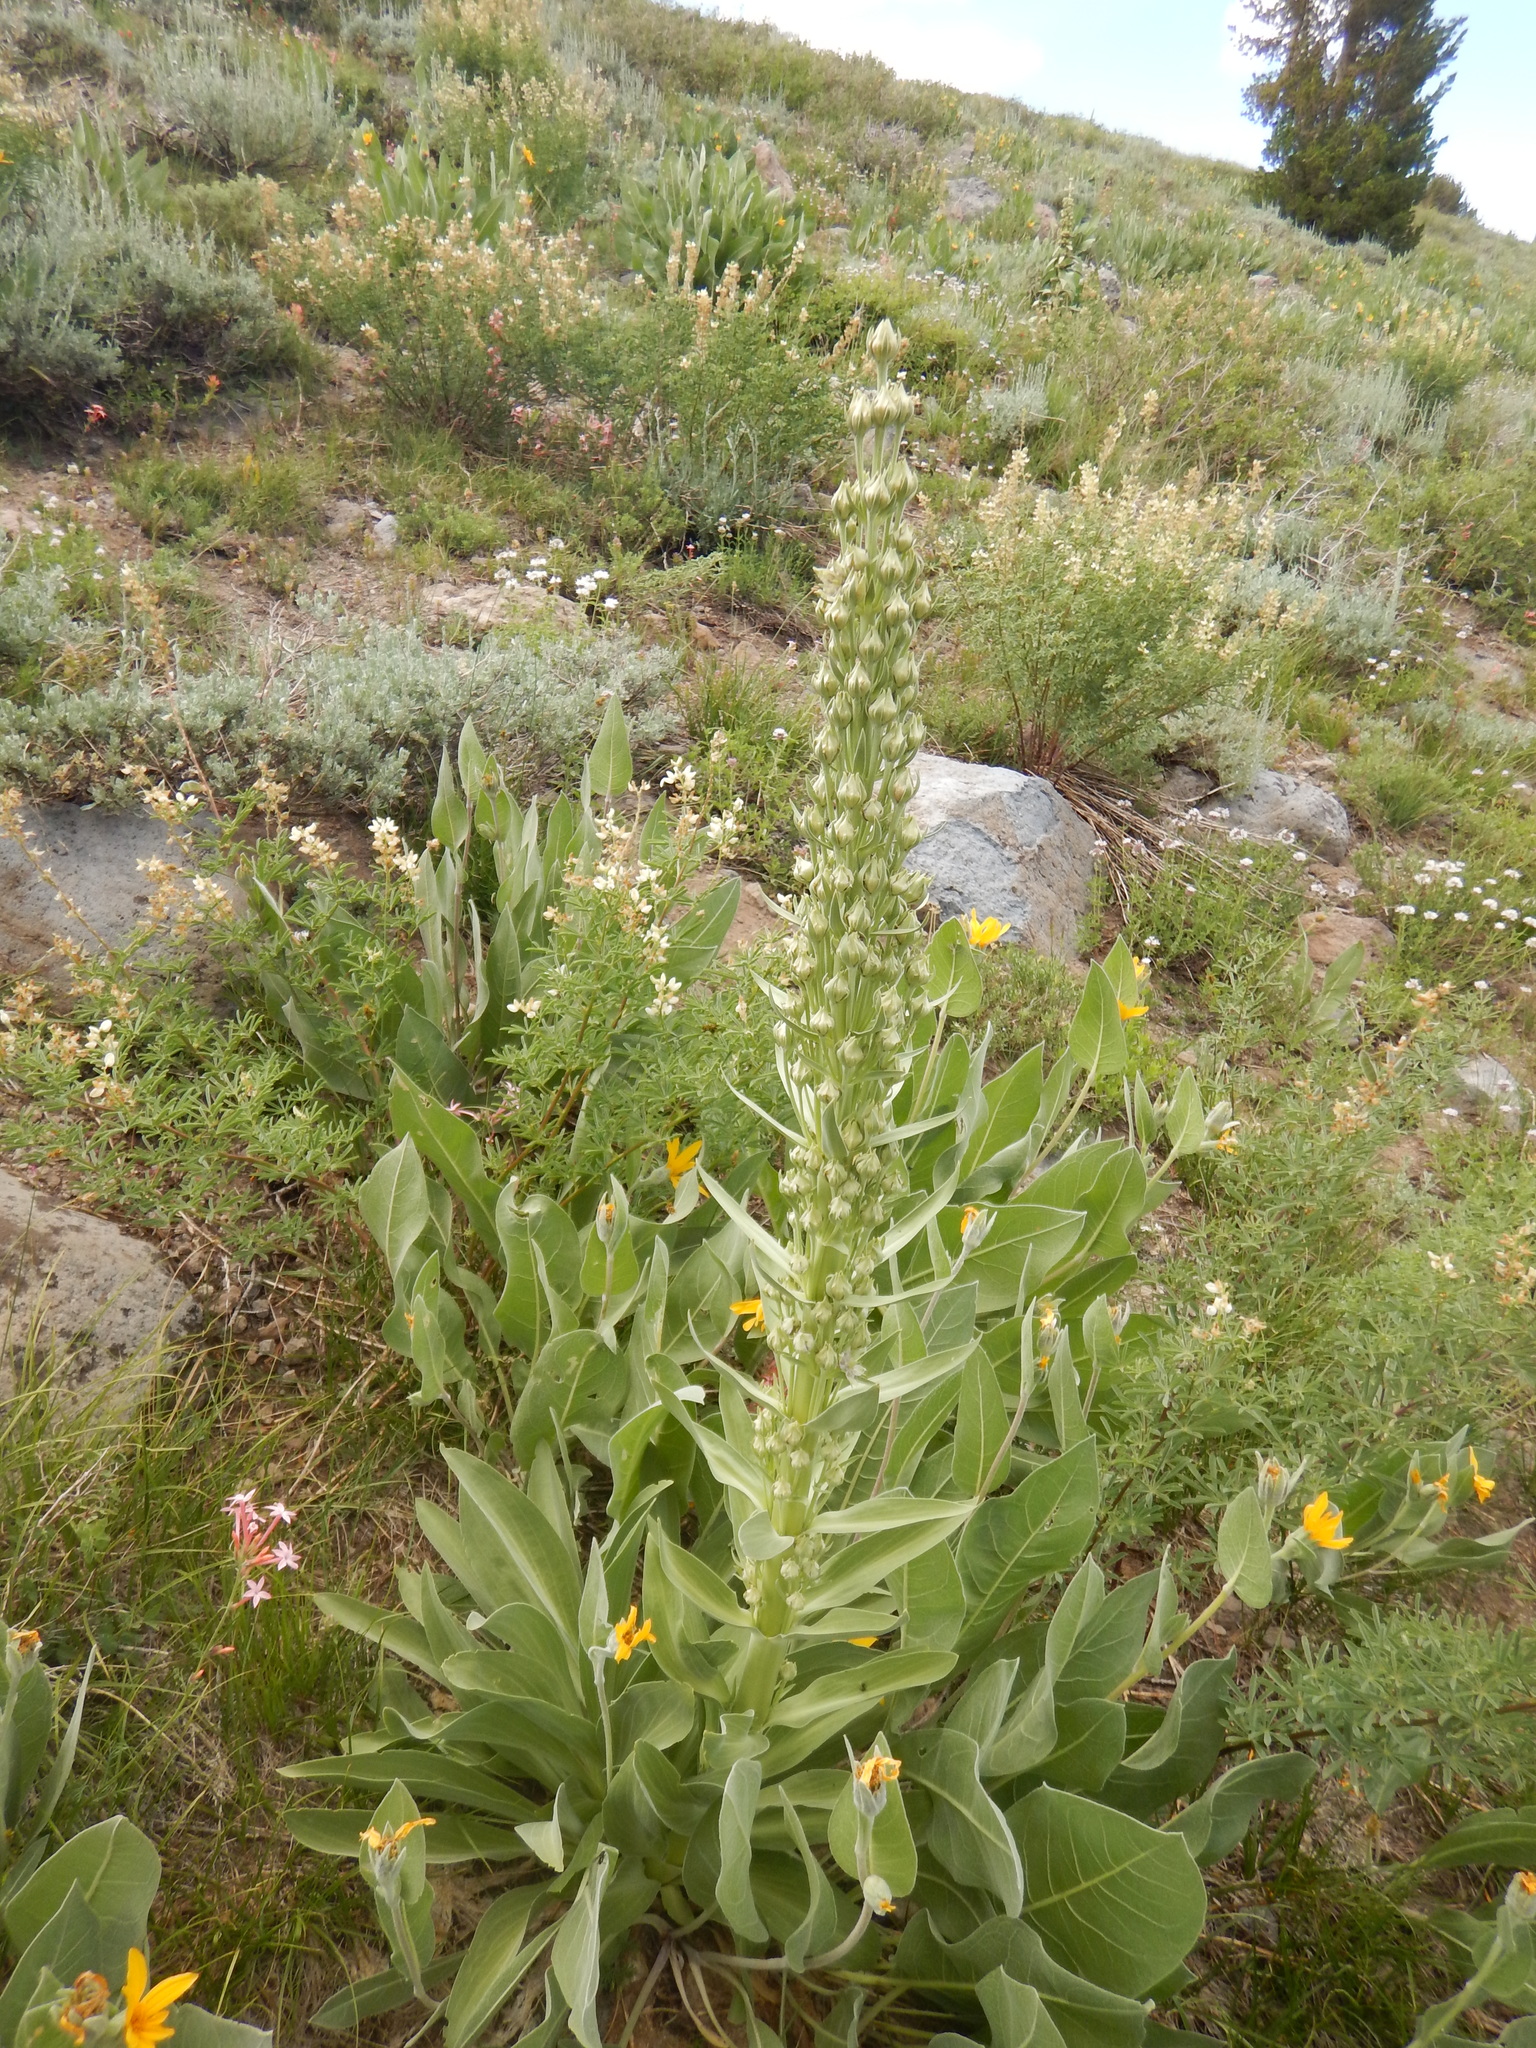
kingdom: Plantae
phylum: Tracheophyta
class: Magnoliopsida
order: Gentianales
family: Gentianaceae
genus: Frasera
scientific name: Frasera speciosa
